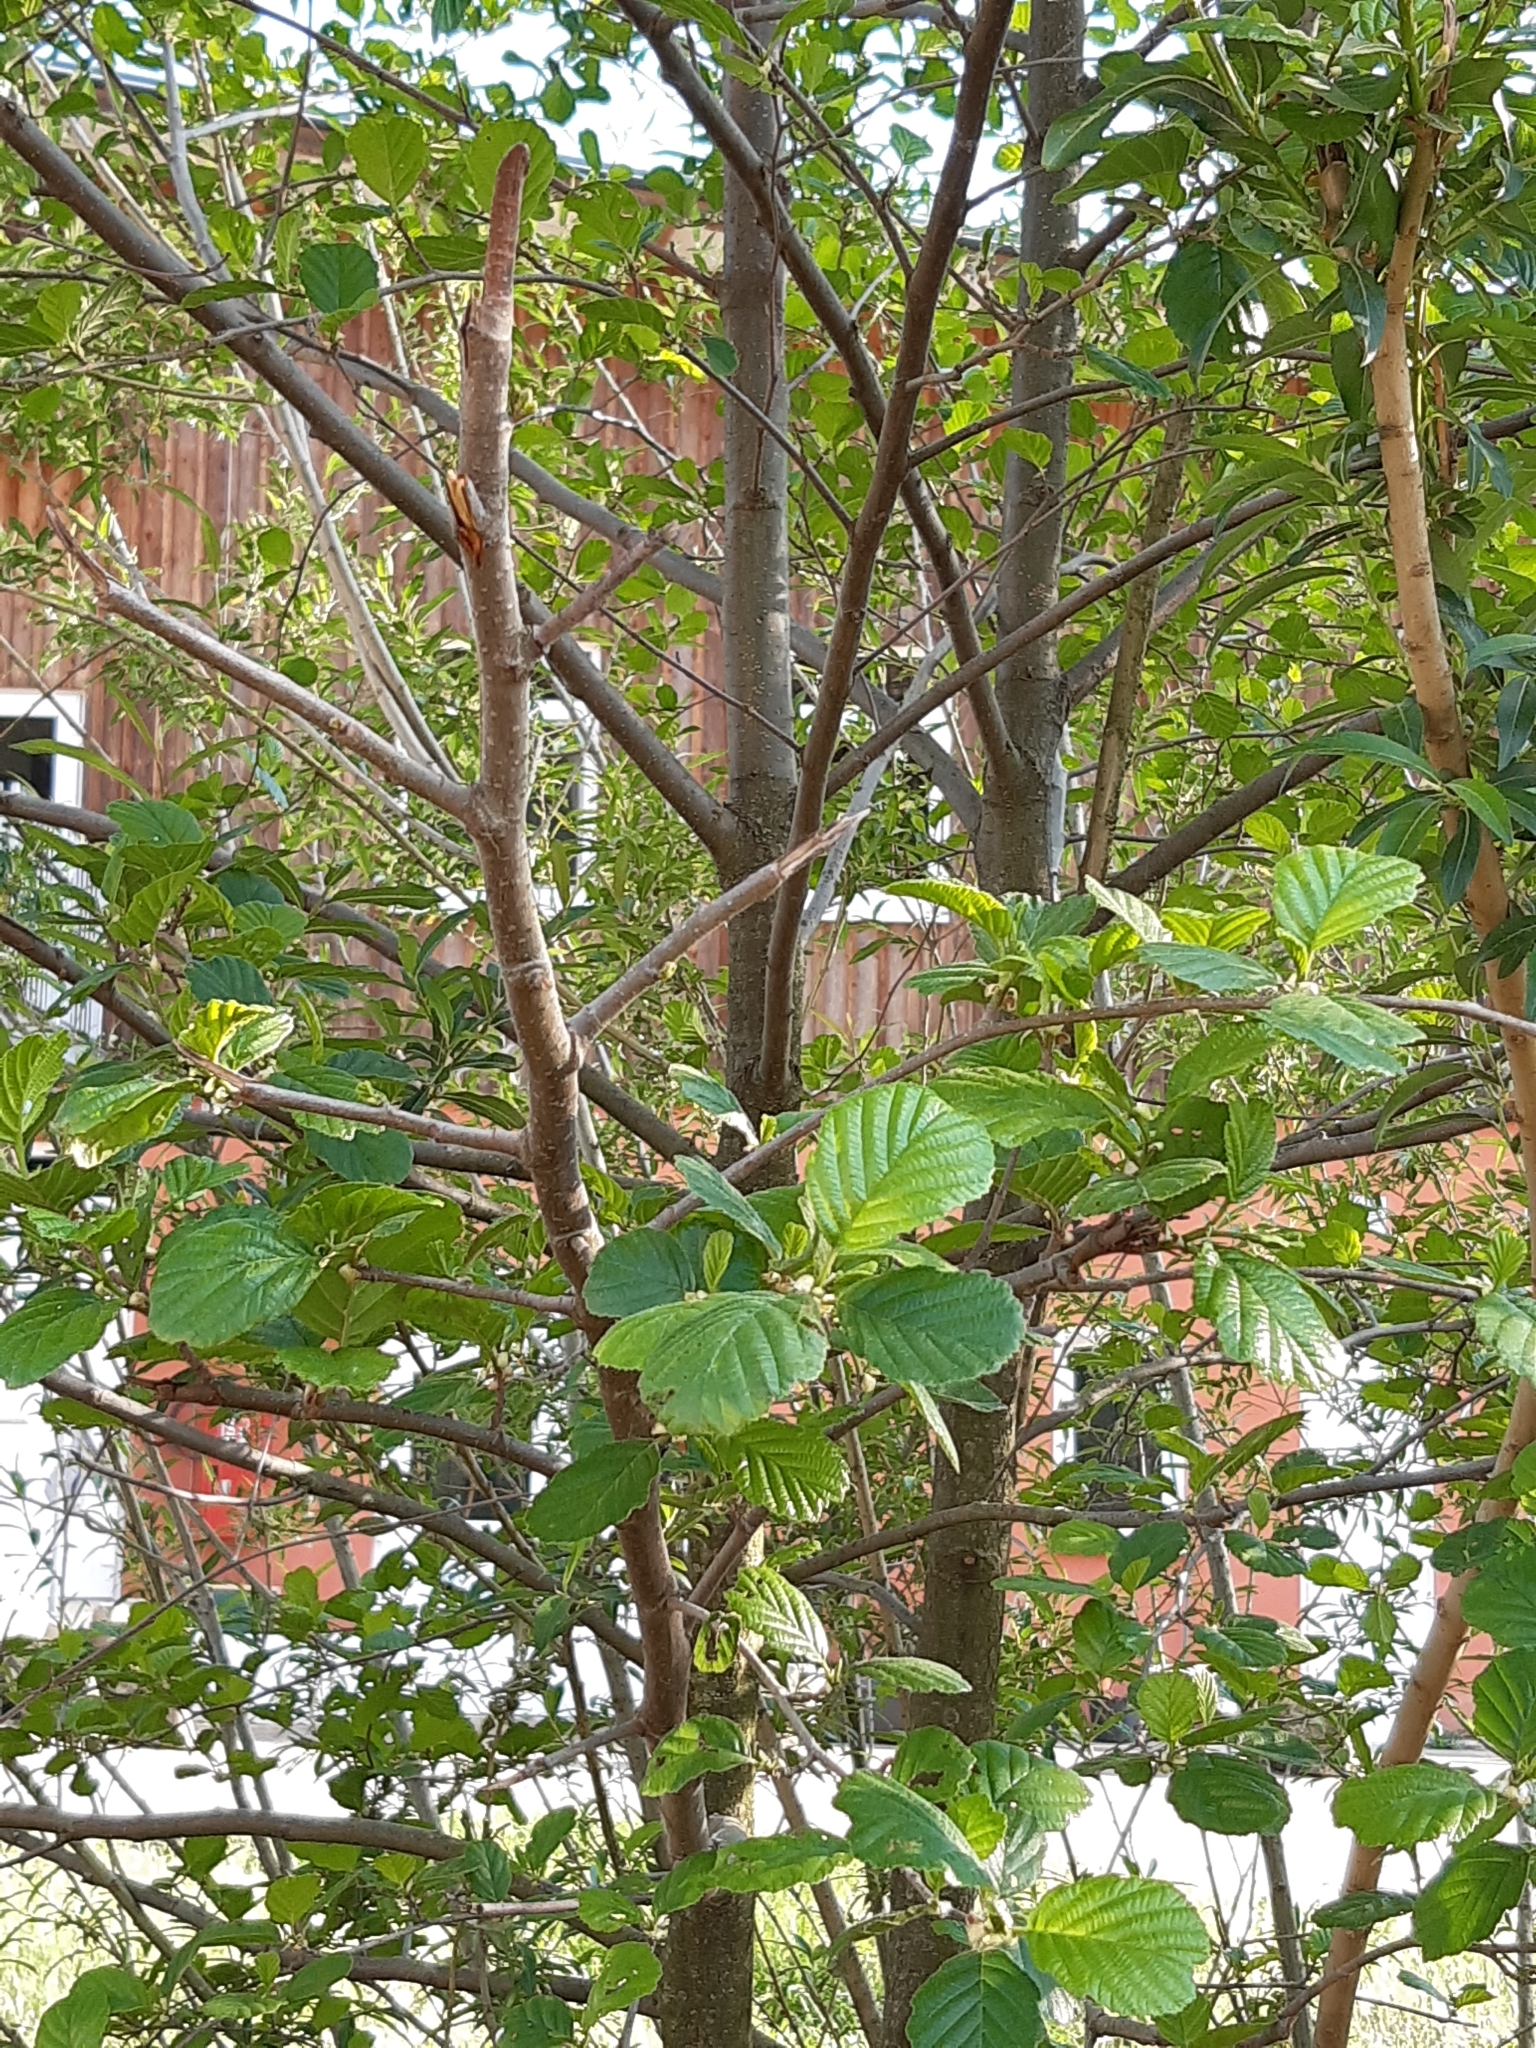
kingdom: Plantae
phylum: Tracheophyta
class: Magnoliopsida
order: Fagales
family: Betulaceae
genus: Alnus
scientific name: Alnus glutinosa
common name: Black alder
